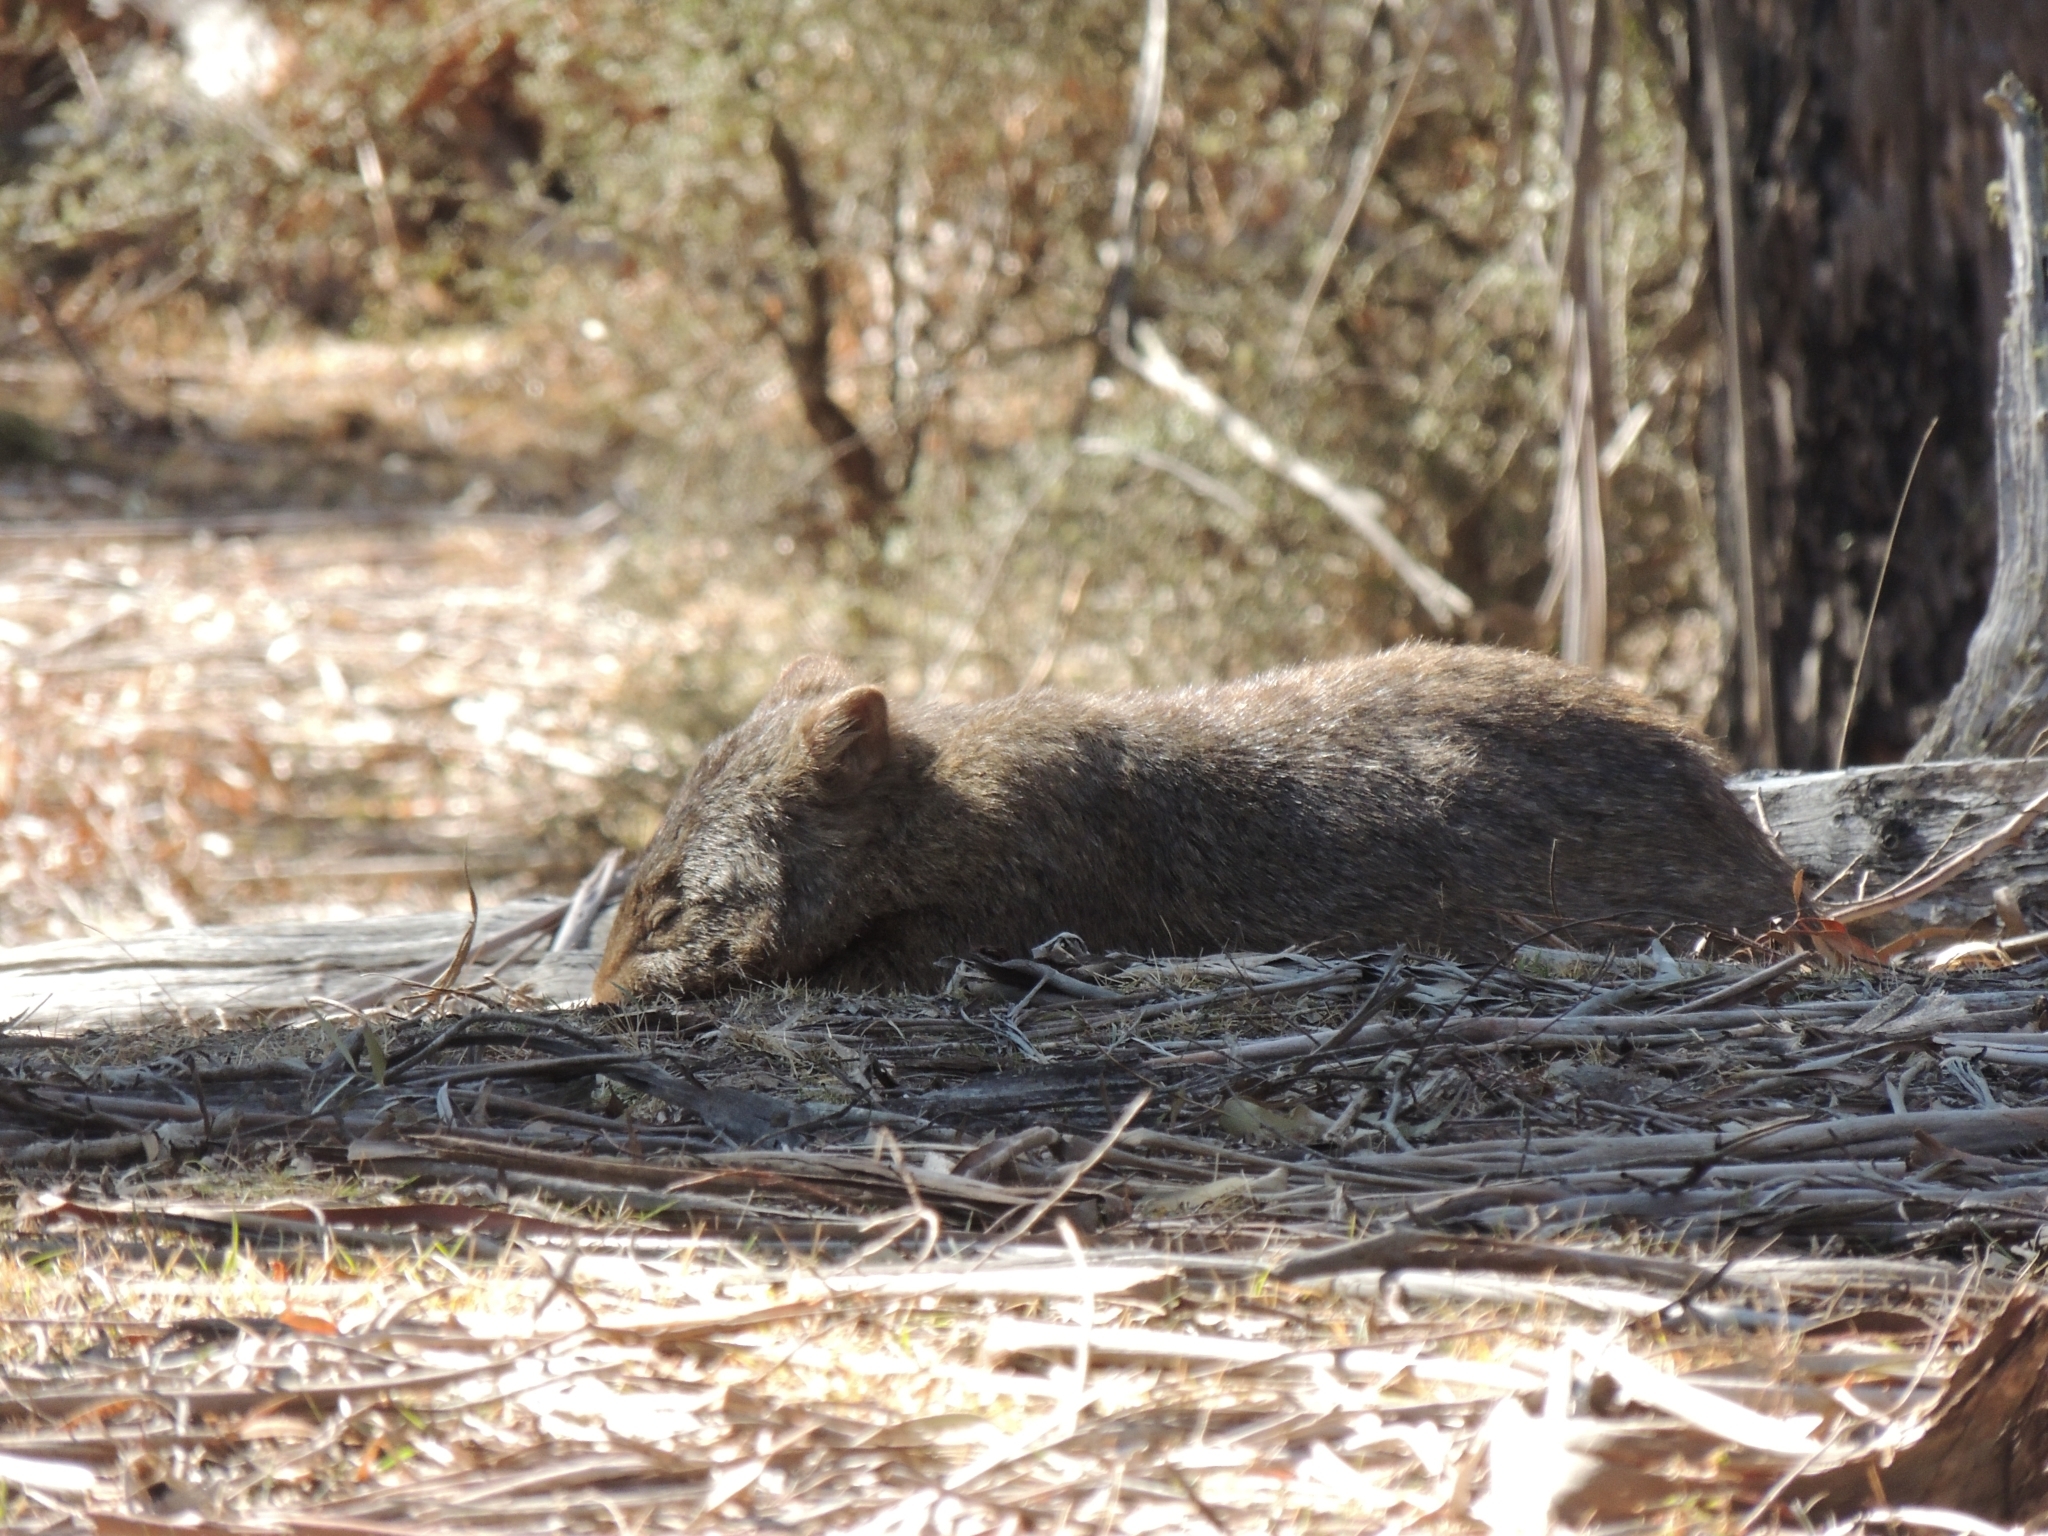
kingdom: Animalia
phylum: Chordata
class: Mammalia
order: Diprotodontia
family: Vombatidae
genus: Vombatus
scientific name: Vombatus ursinus
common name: Common wombat
